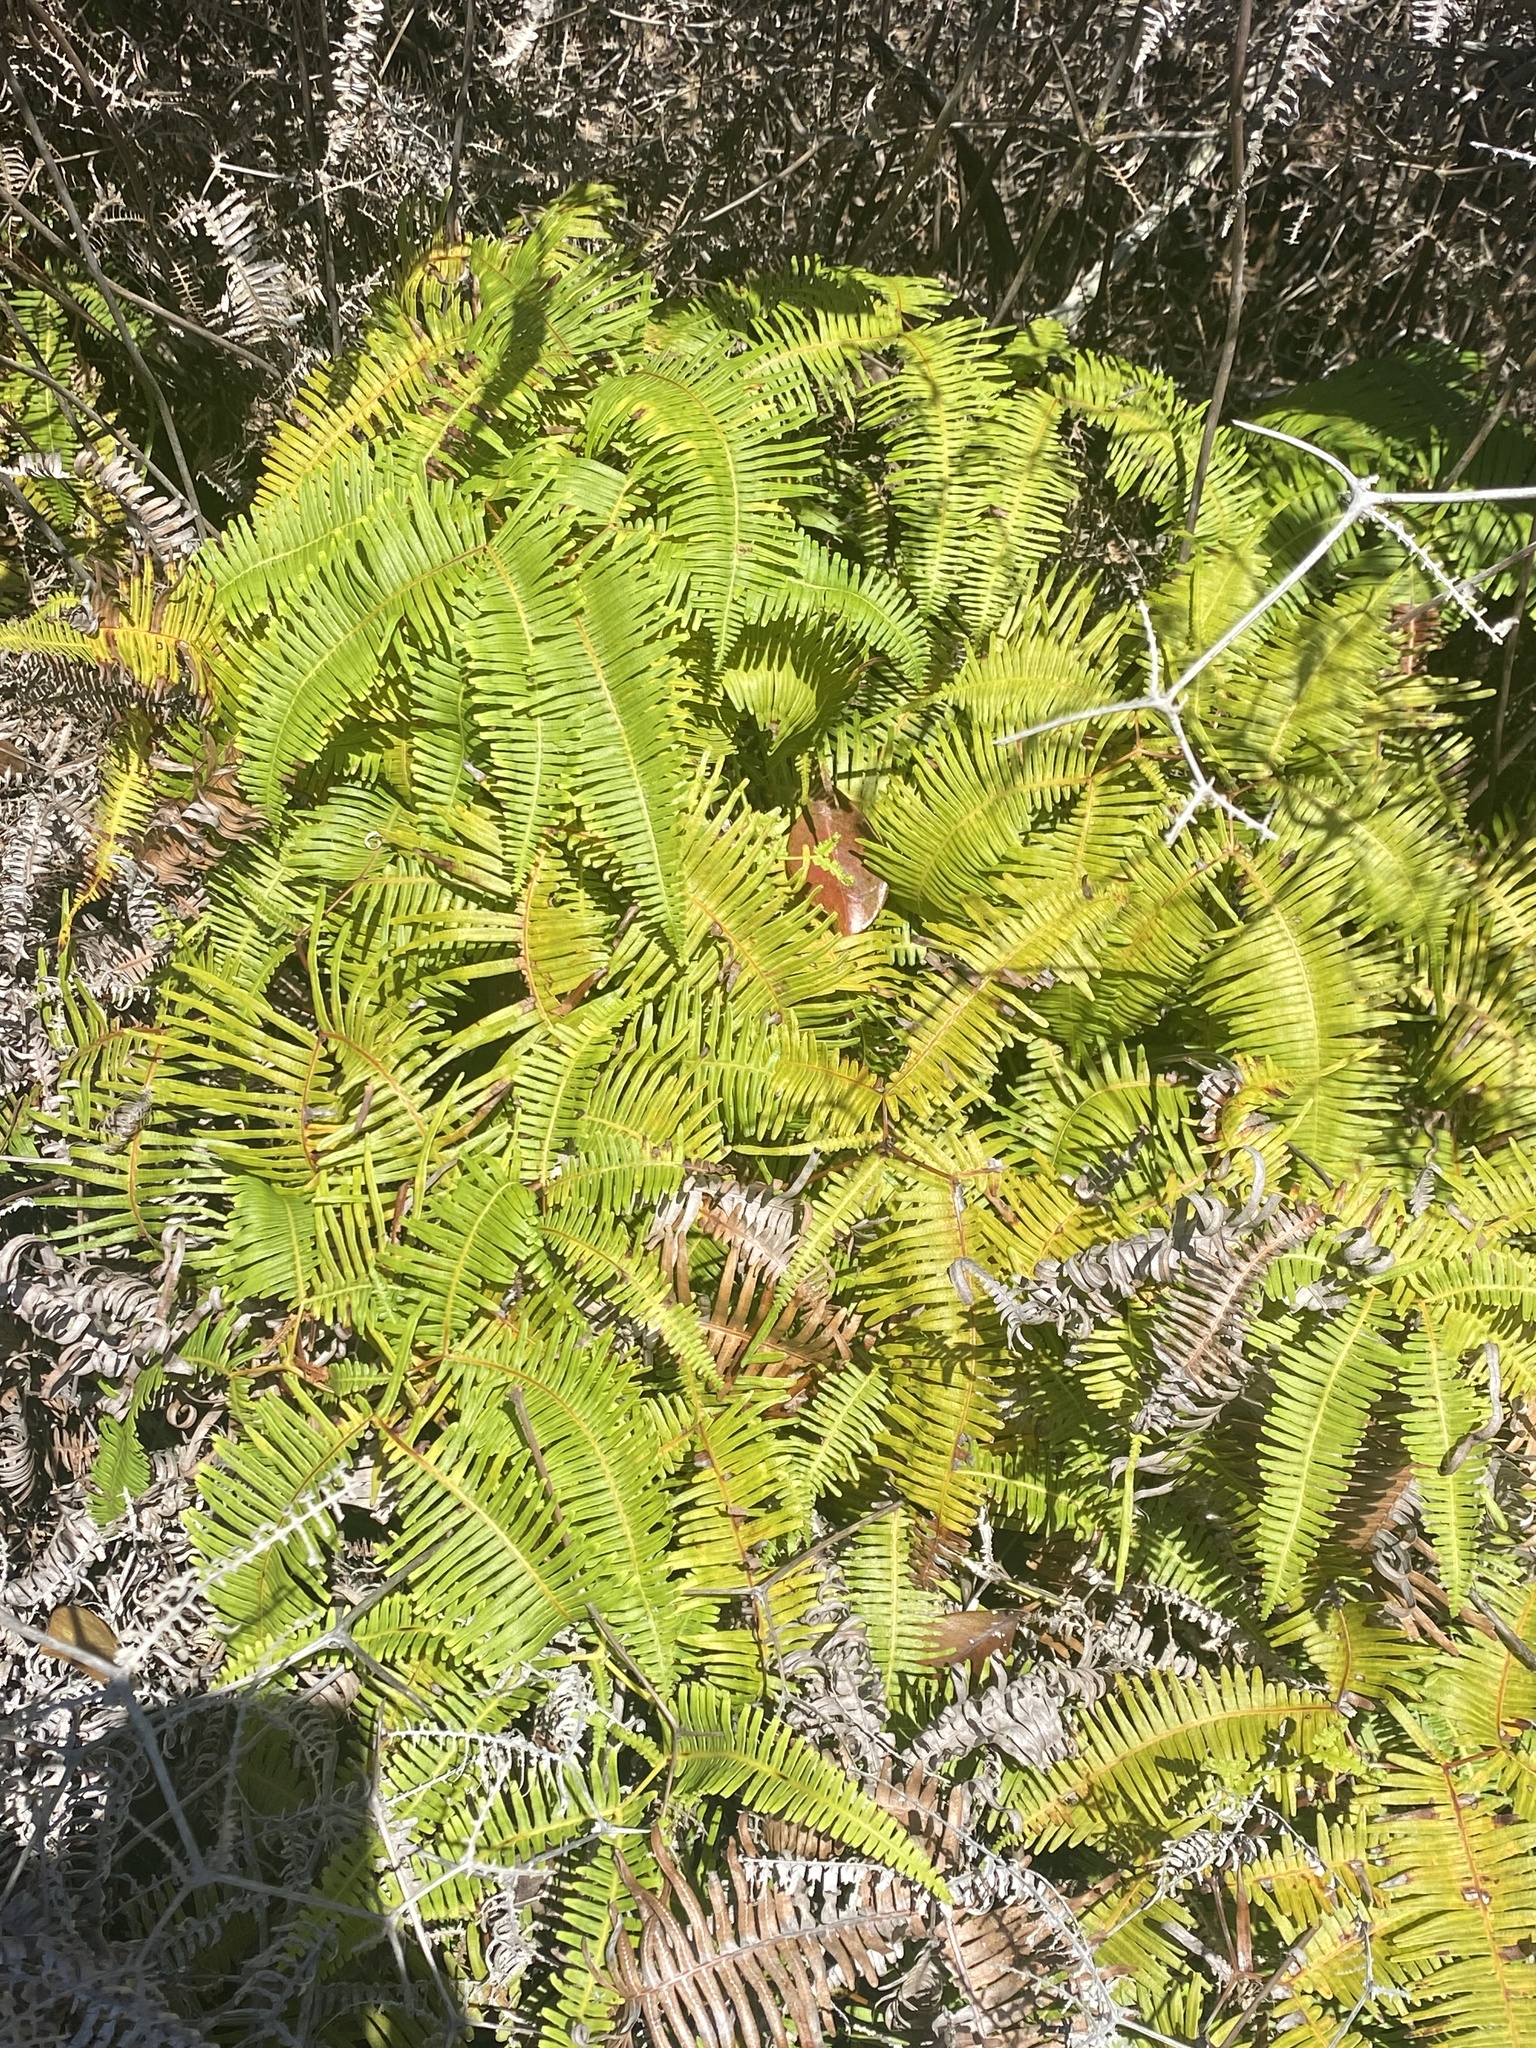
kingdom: Plantae
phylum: Tracheophyta
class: Polypodiopsida
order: Gleicheniales
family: Gleicheniaceae
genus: Dicranopteris
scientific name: Dicranopteris linearis
